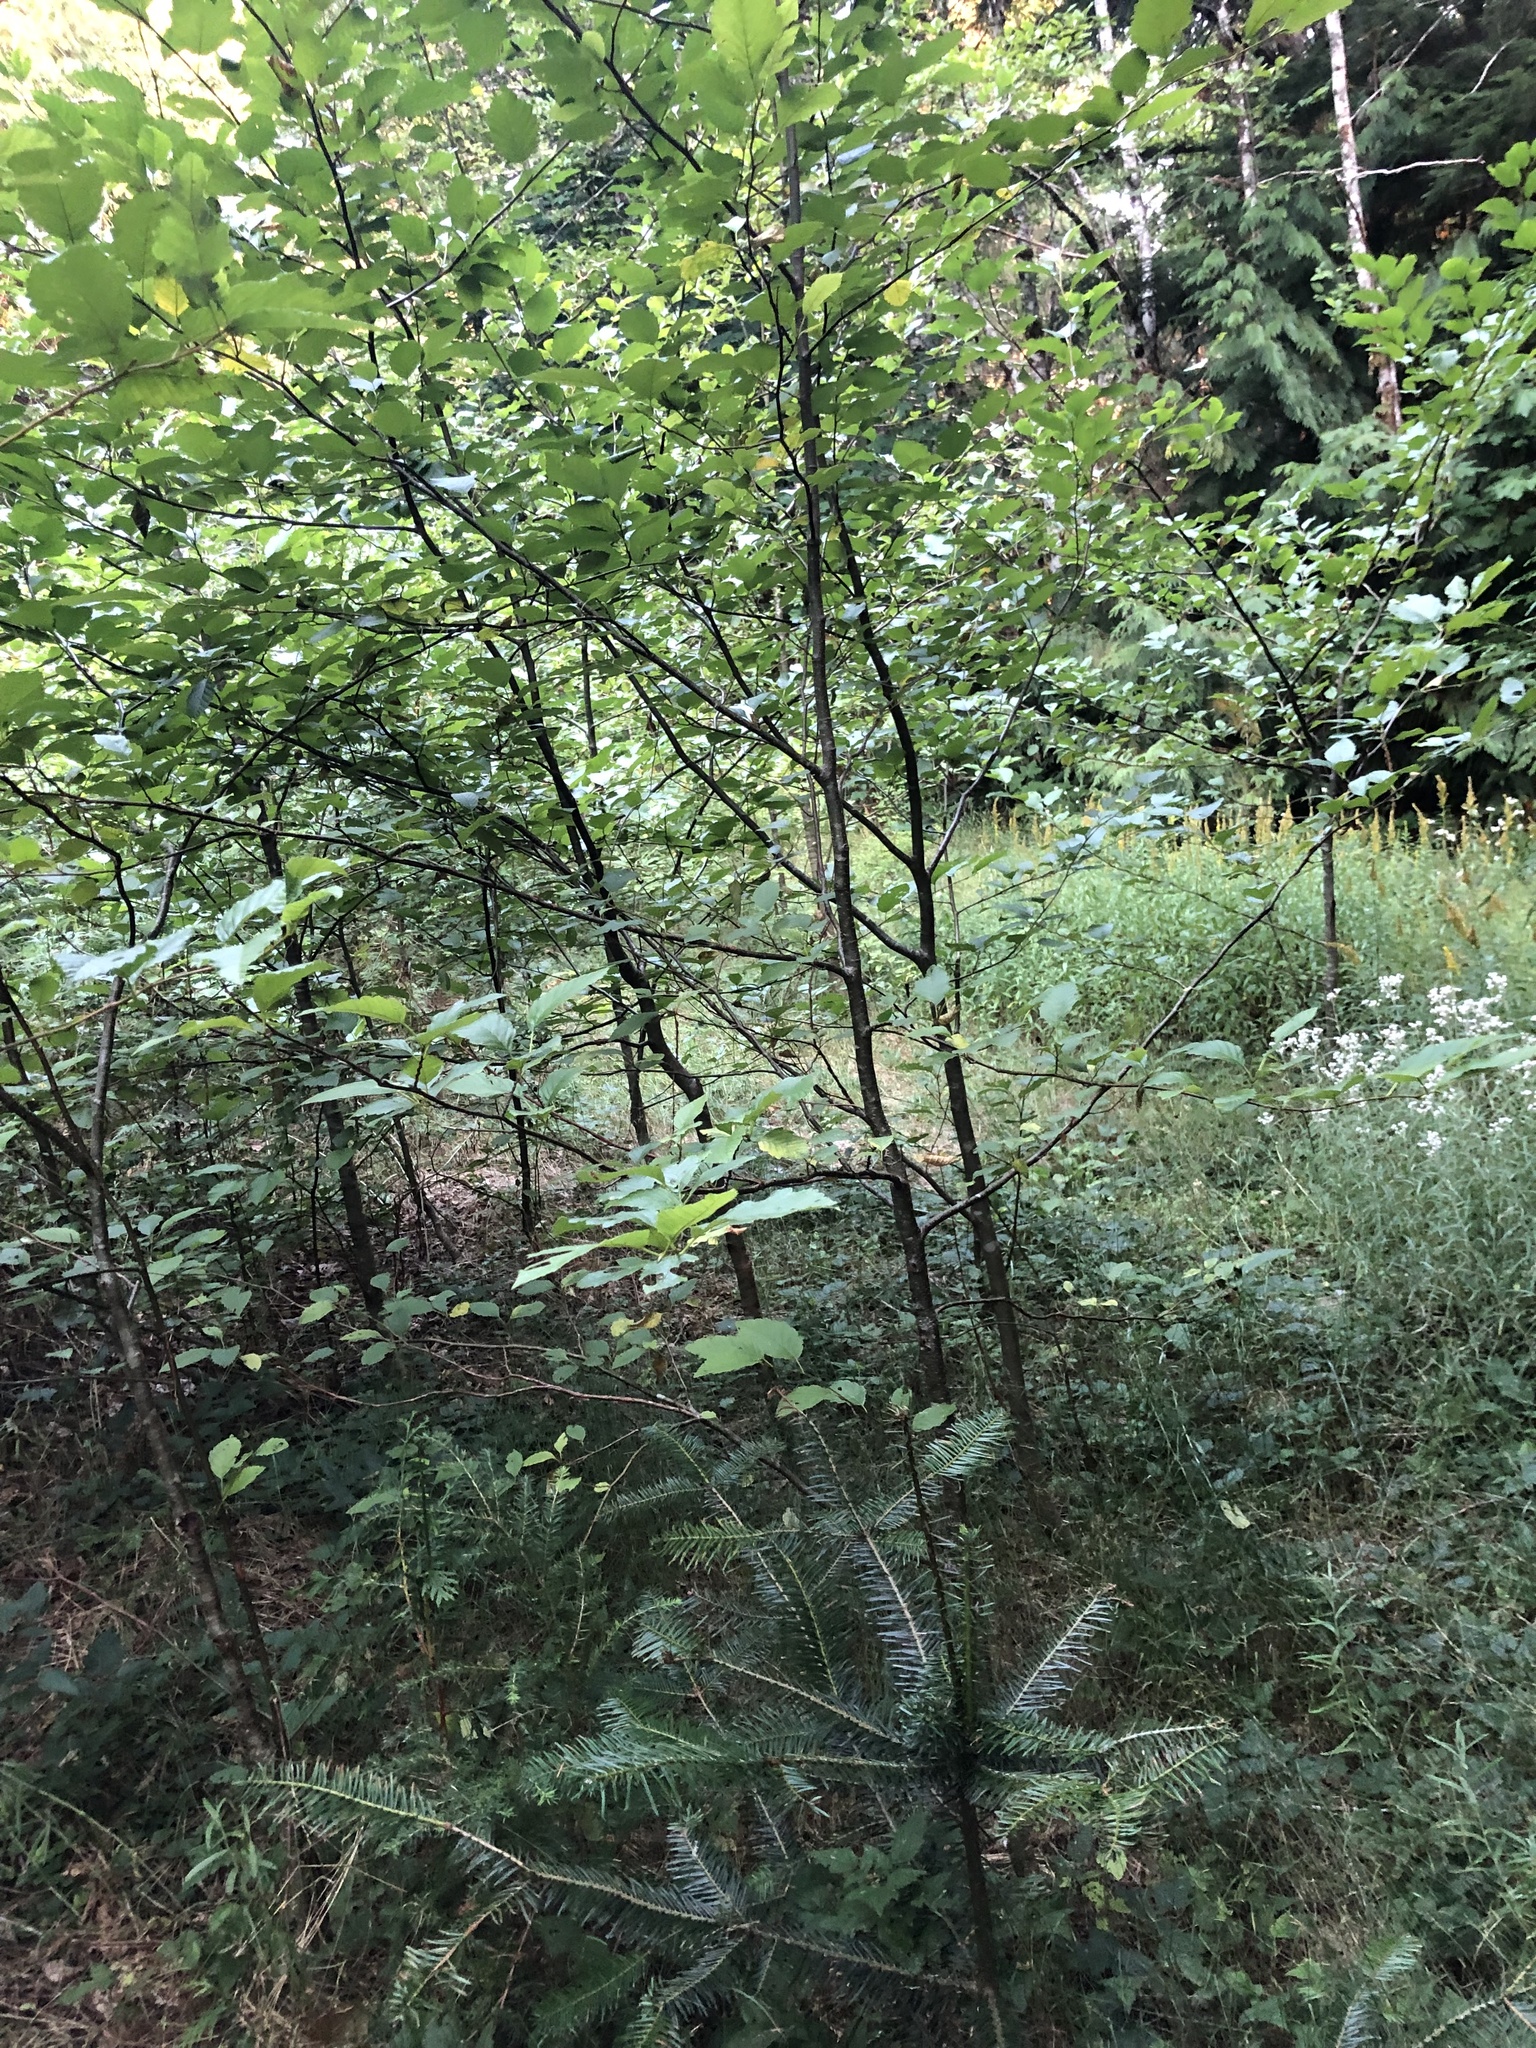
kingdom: Plantae
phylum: Tracheophyta
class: Magnoliopsida
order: Fagales
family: Betulaceae
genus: Alnus
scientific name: Alnus rubra
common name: Red alder
